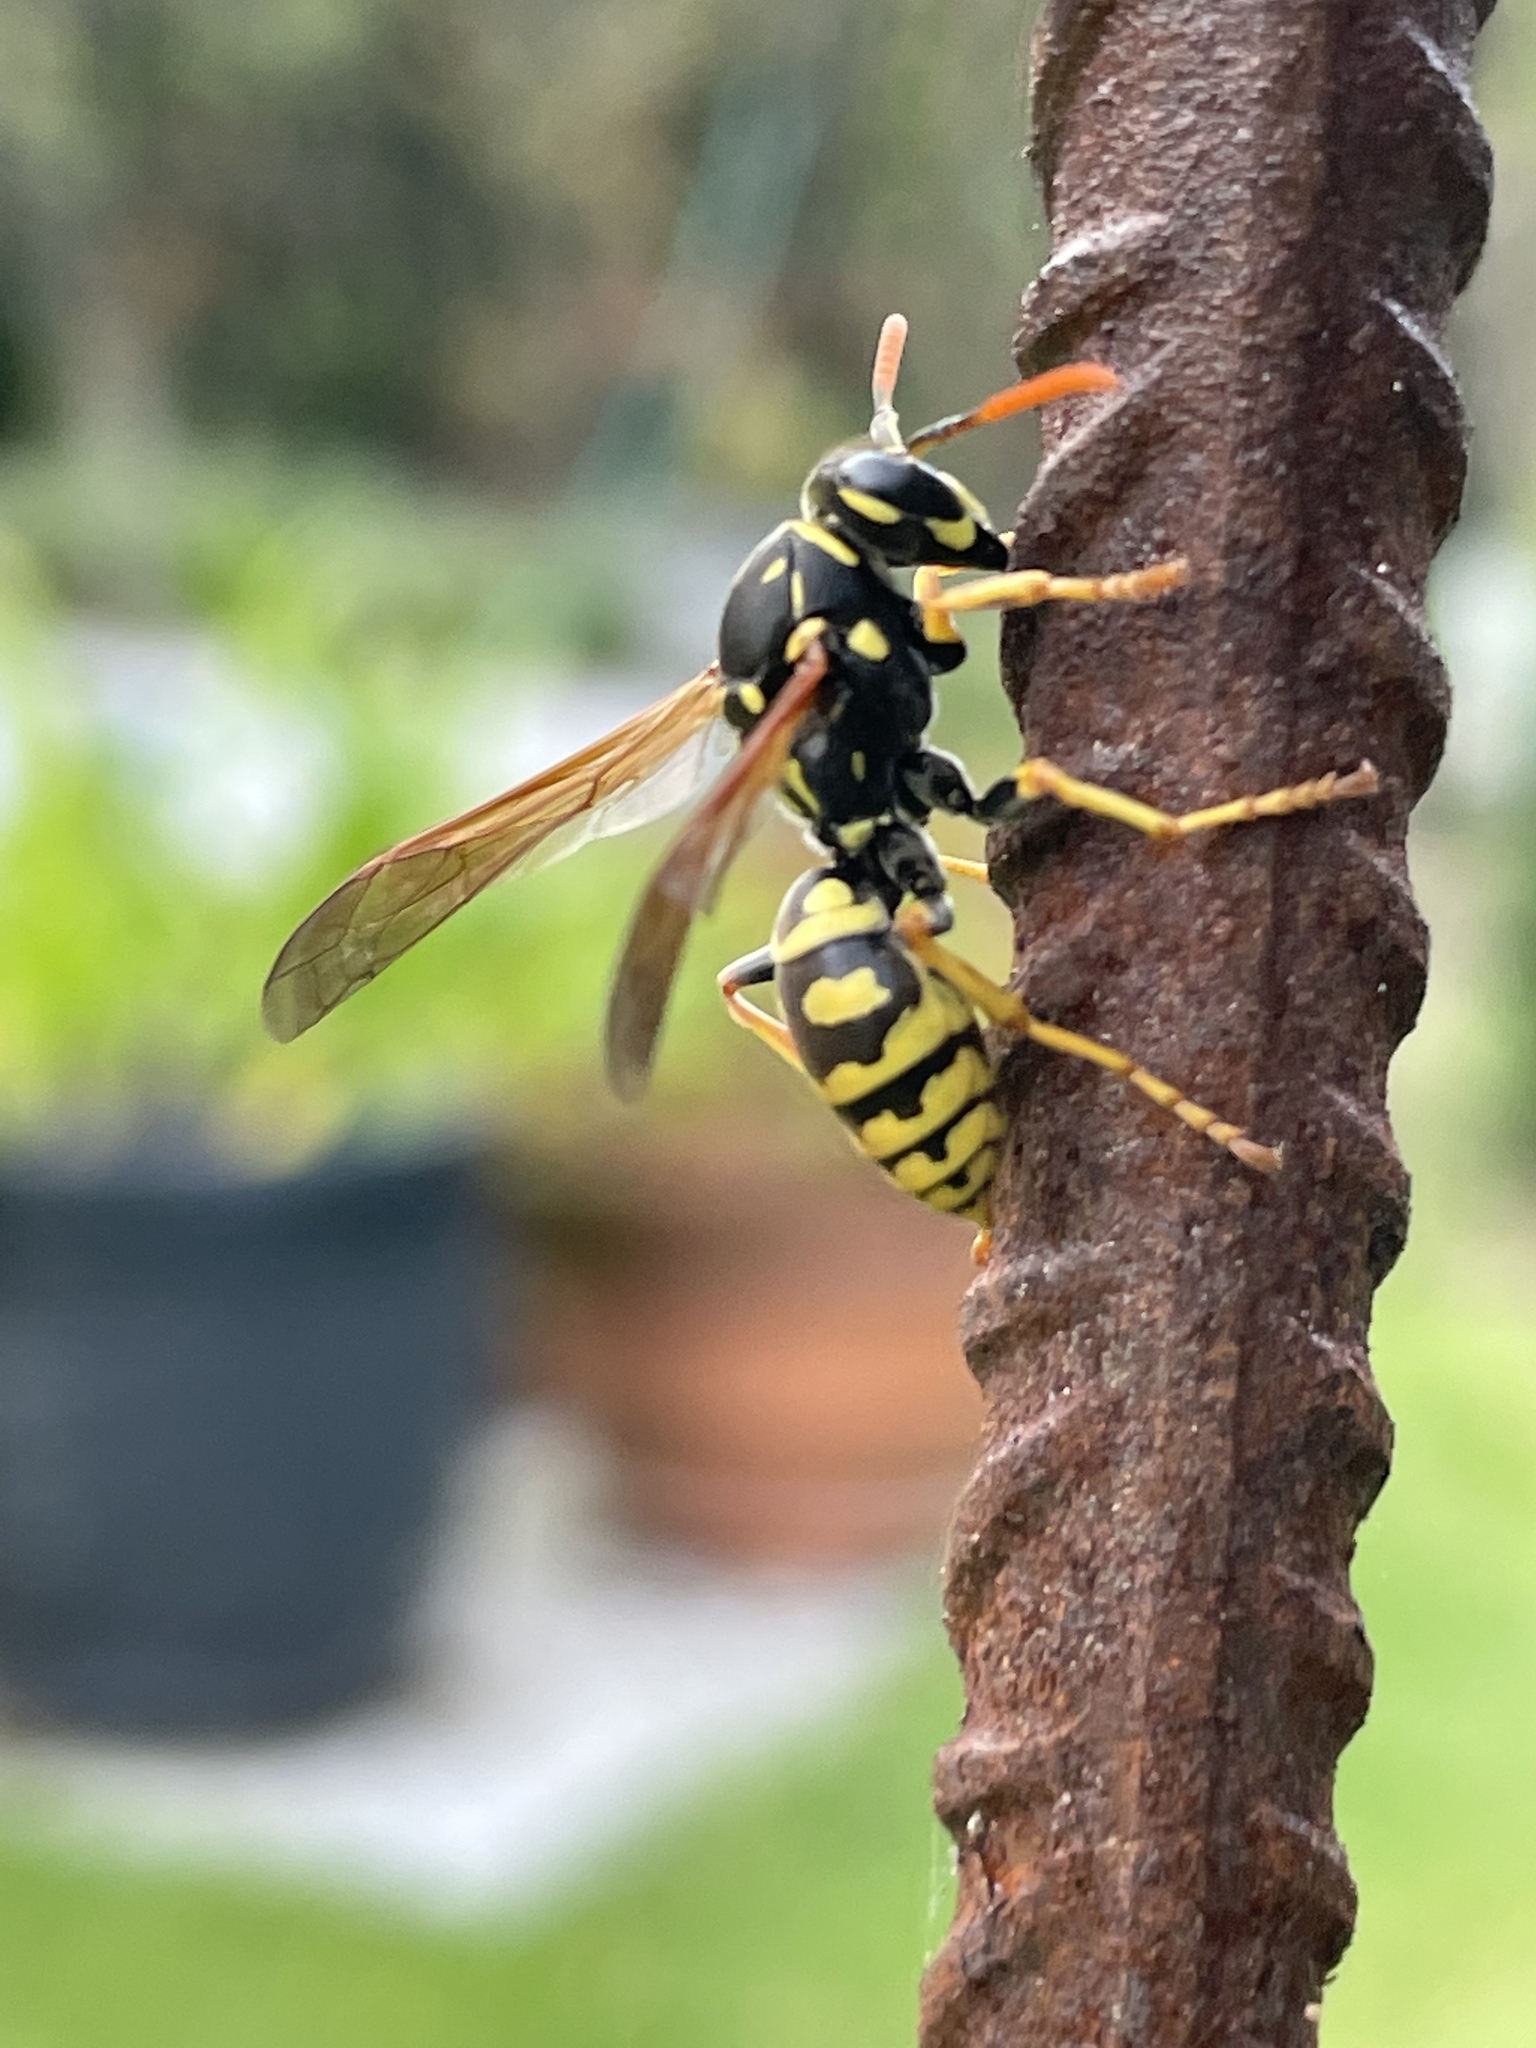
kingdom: Animalia
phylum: Arthropoda
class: Insecta
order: Hymenoptera
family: Eumenidae
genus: Polistes
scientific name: Polistes dominula
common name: Paper wasp
